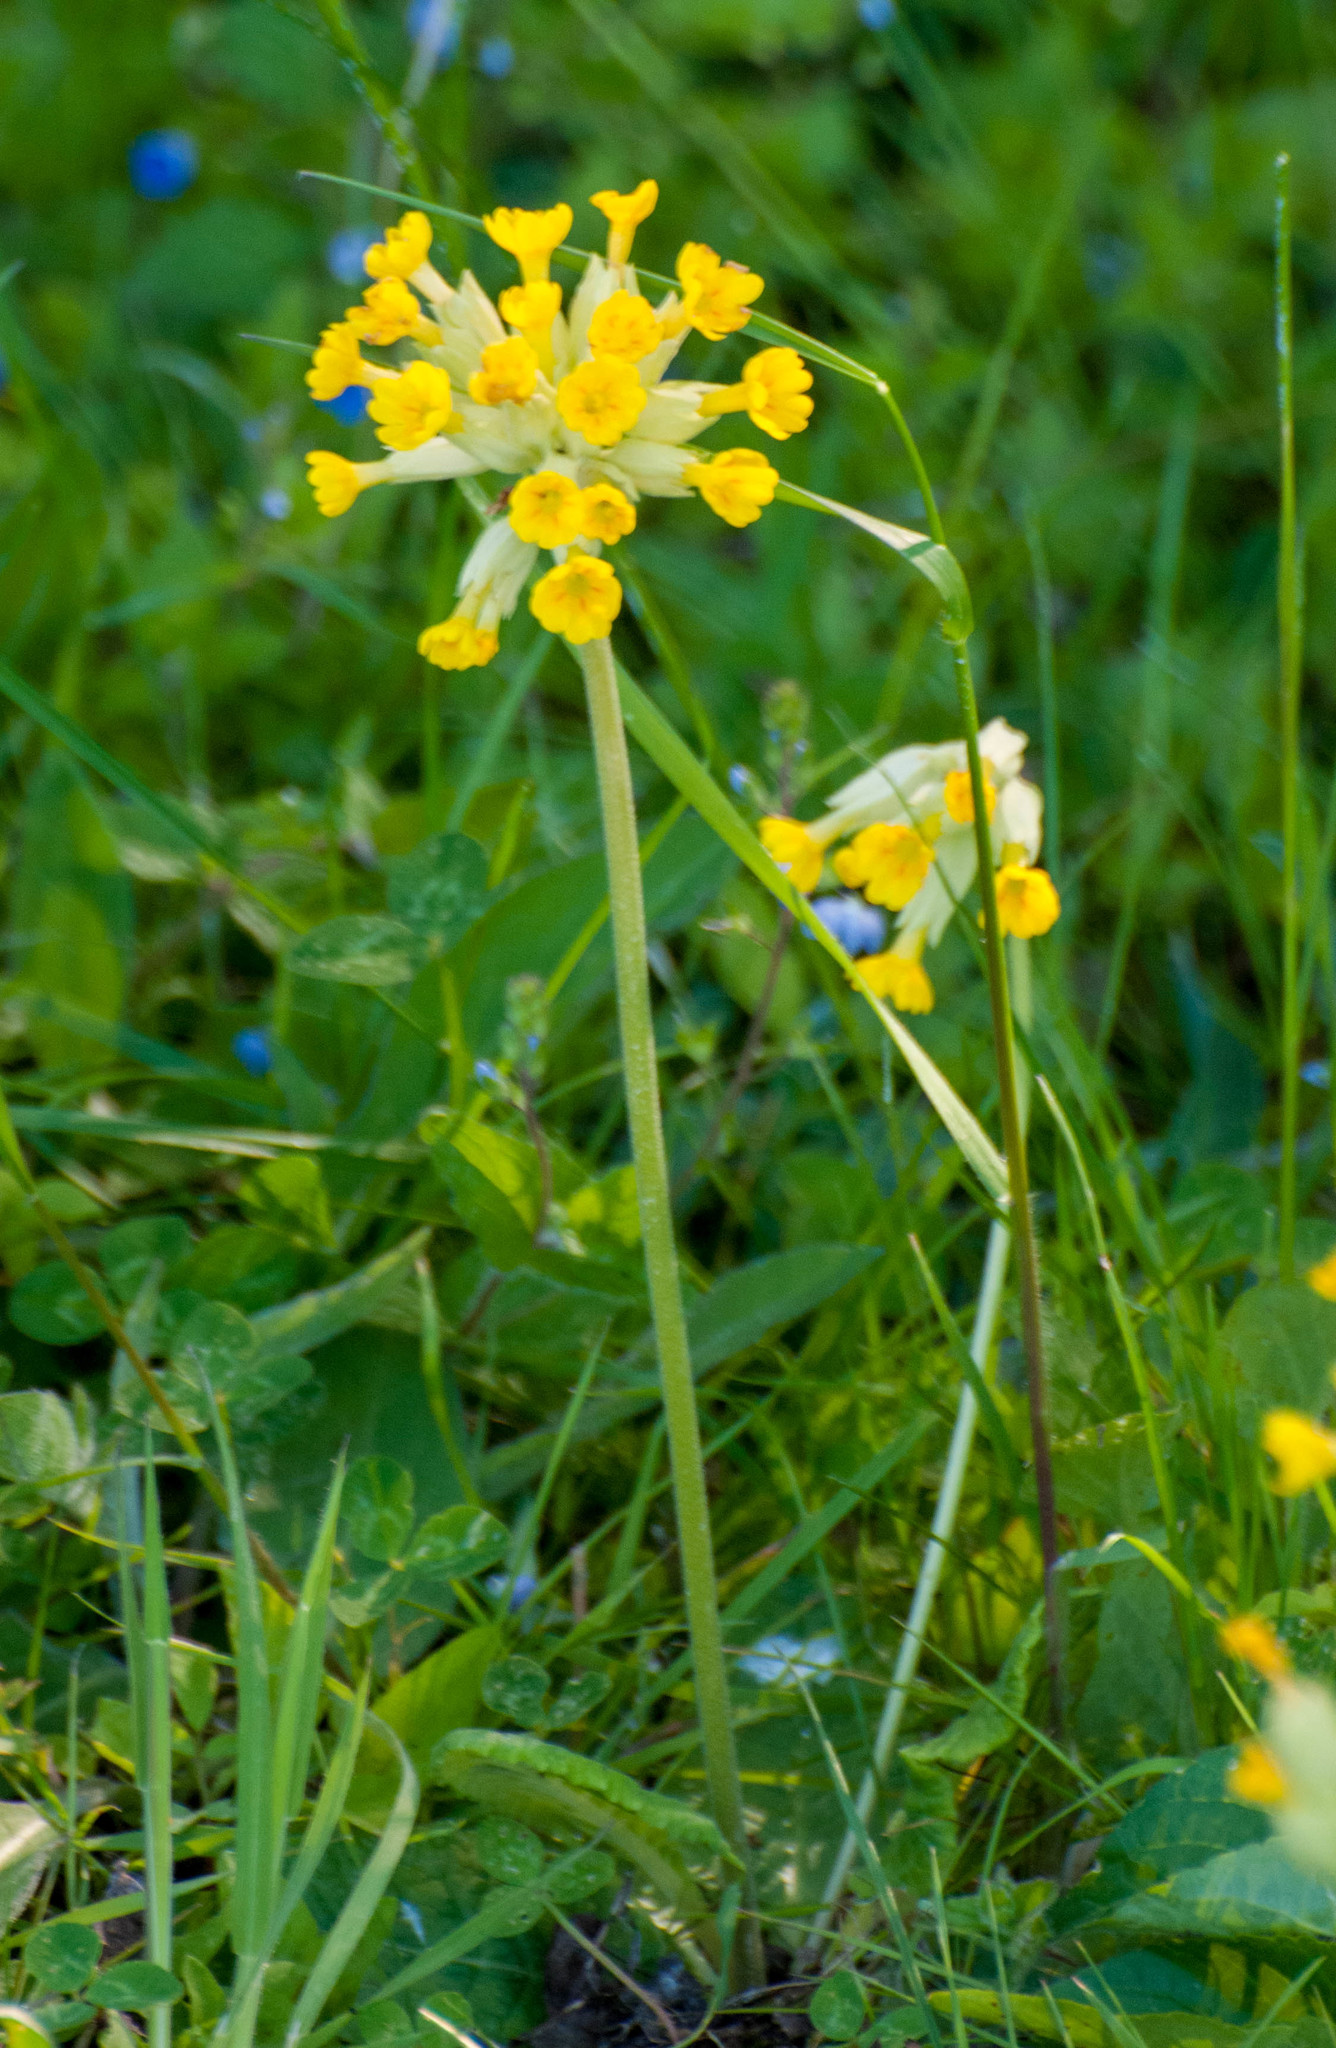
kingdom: Plantae
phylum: Tracheophyta
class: Magnoliopsida
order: Ericales
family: Primulaceae
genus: Primula
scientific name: Primula veris
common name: Cowslip
